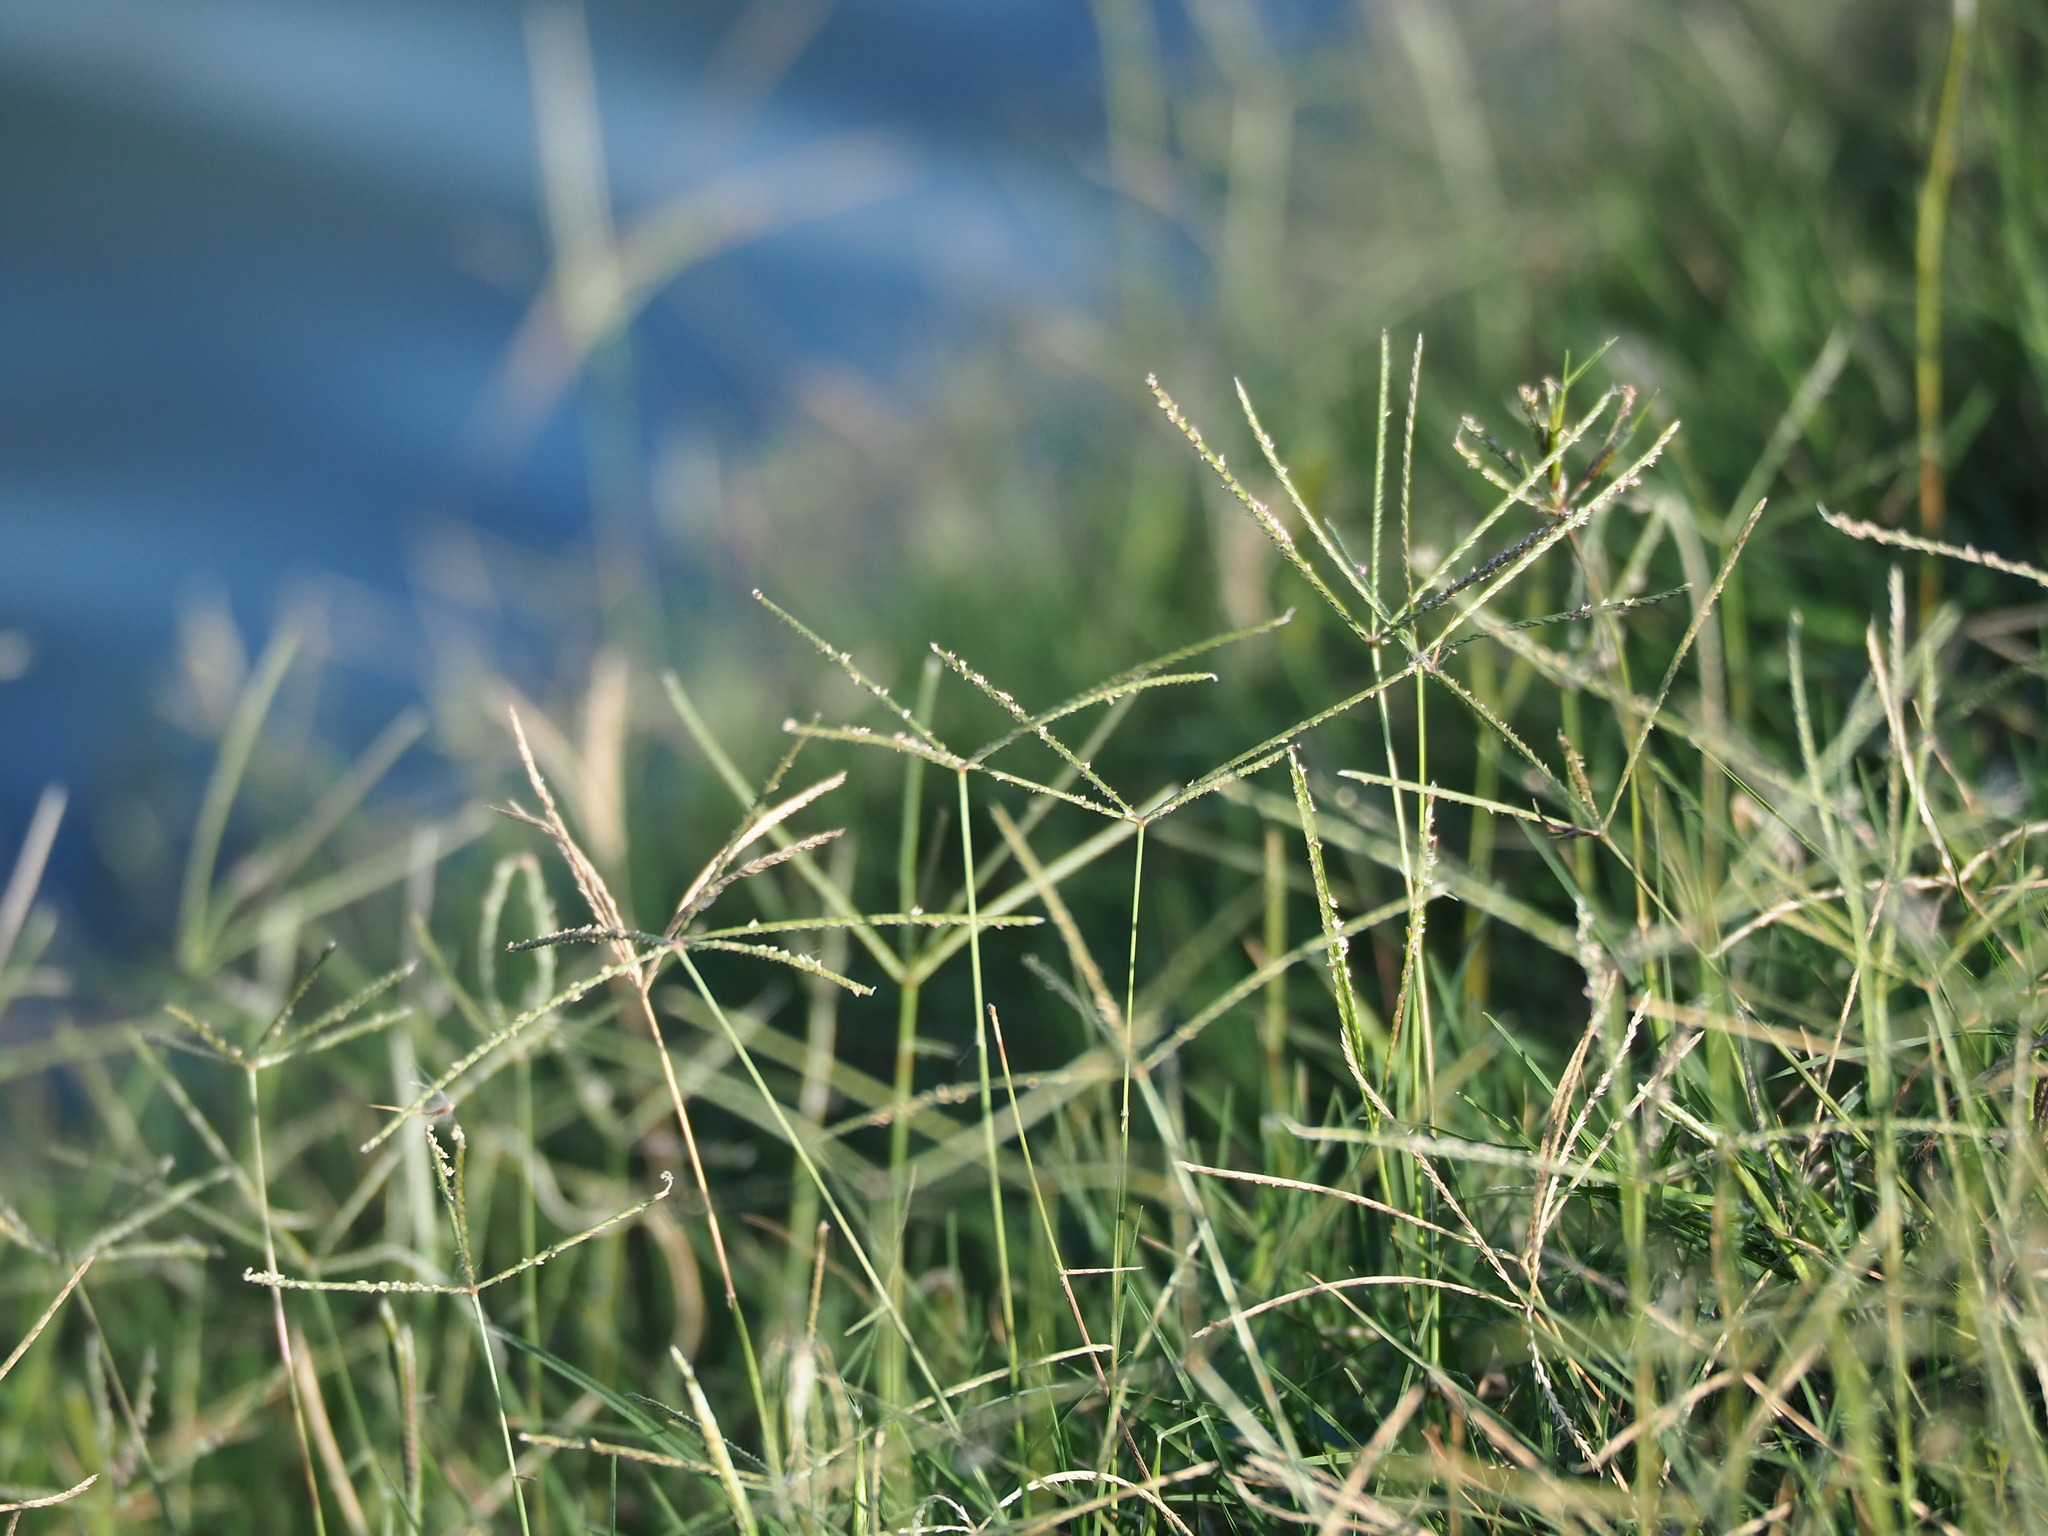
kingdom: Plantae
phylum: Tracheophyta
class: Liliopsida
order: Poales
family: Poaceae
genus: Cynodon
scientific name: Cynodon dactylon
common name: Bermuda grass
